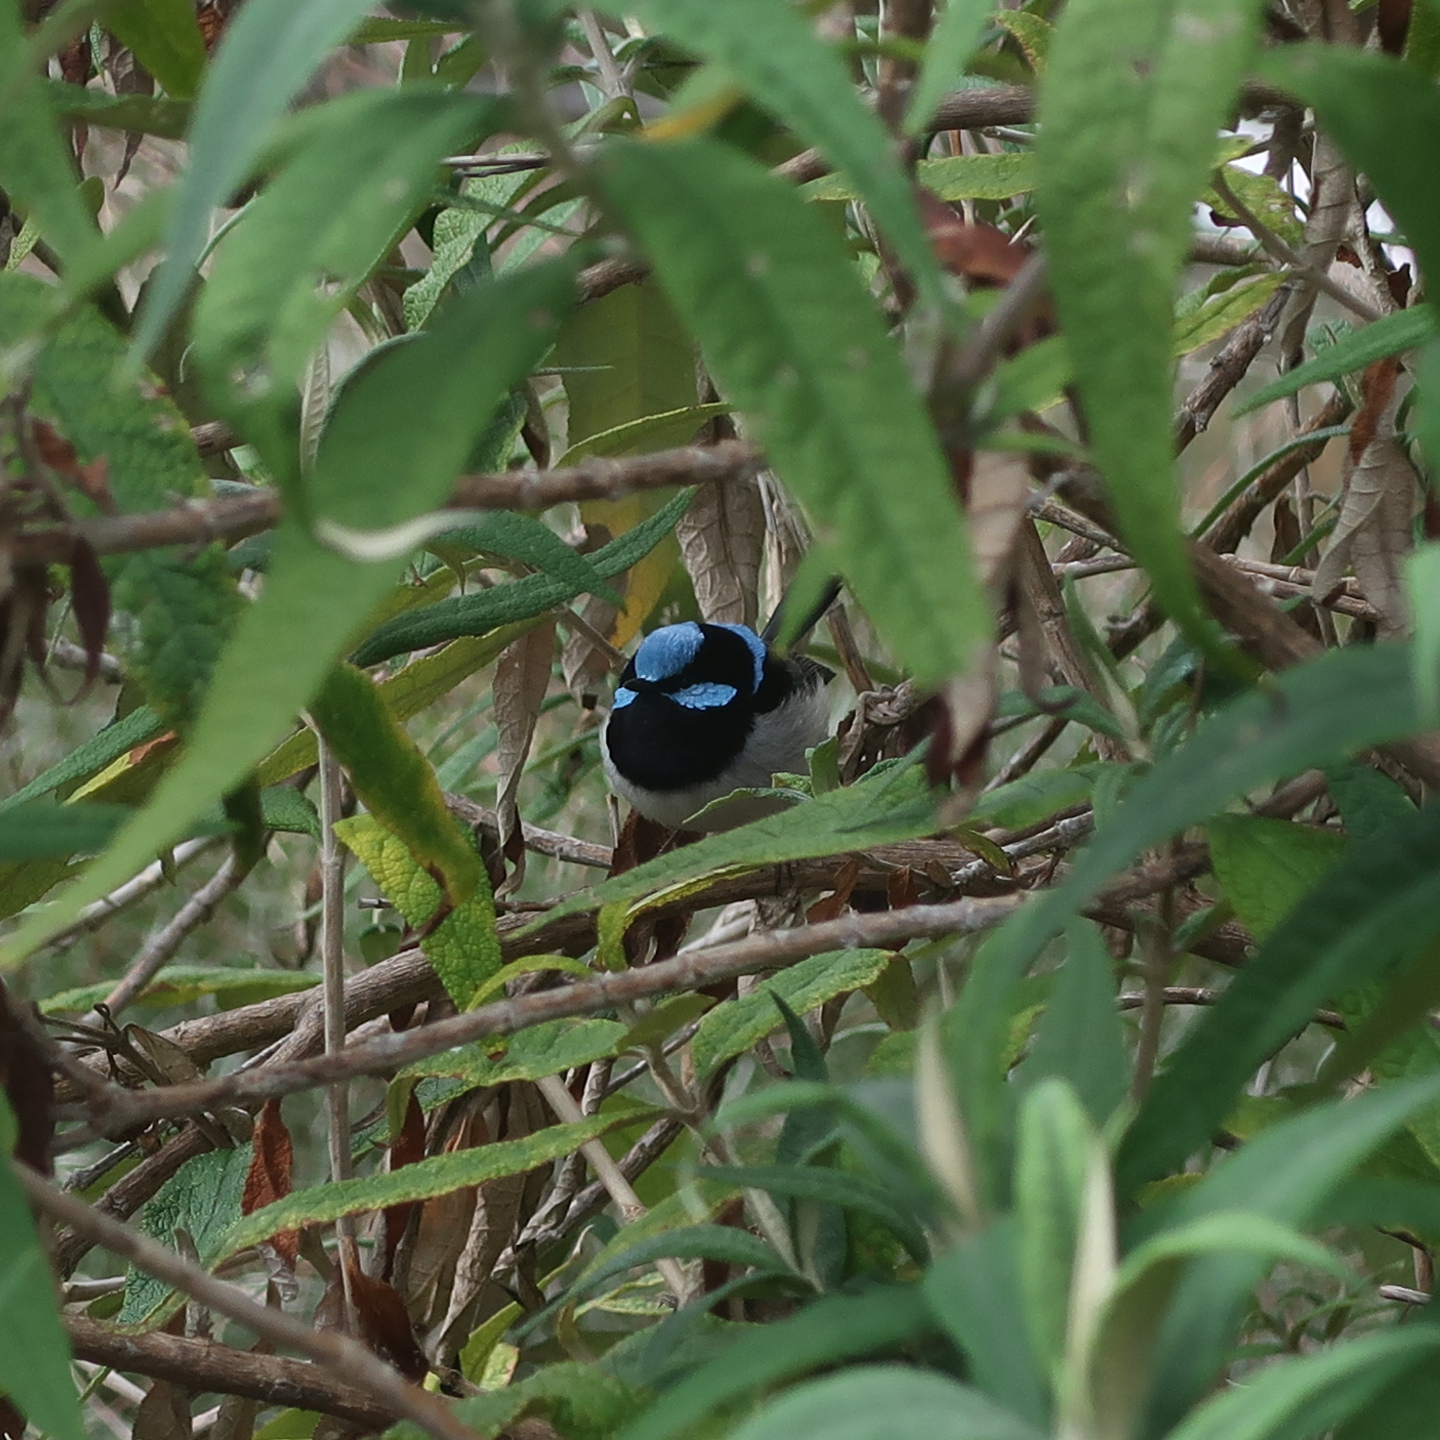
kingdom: Animalia
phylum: Chordata
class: Aves
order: Passeriformes
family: Maluridae
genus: Malurus
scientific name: Malurus cyaneus
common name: Superb fairywren
